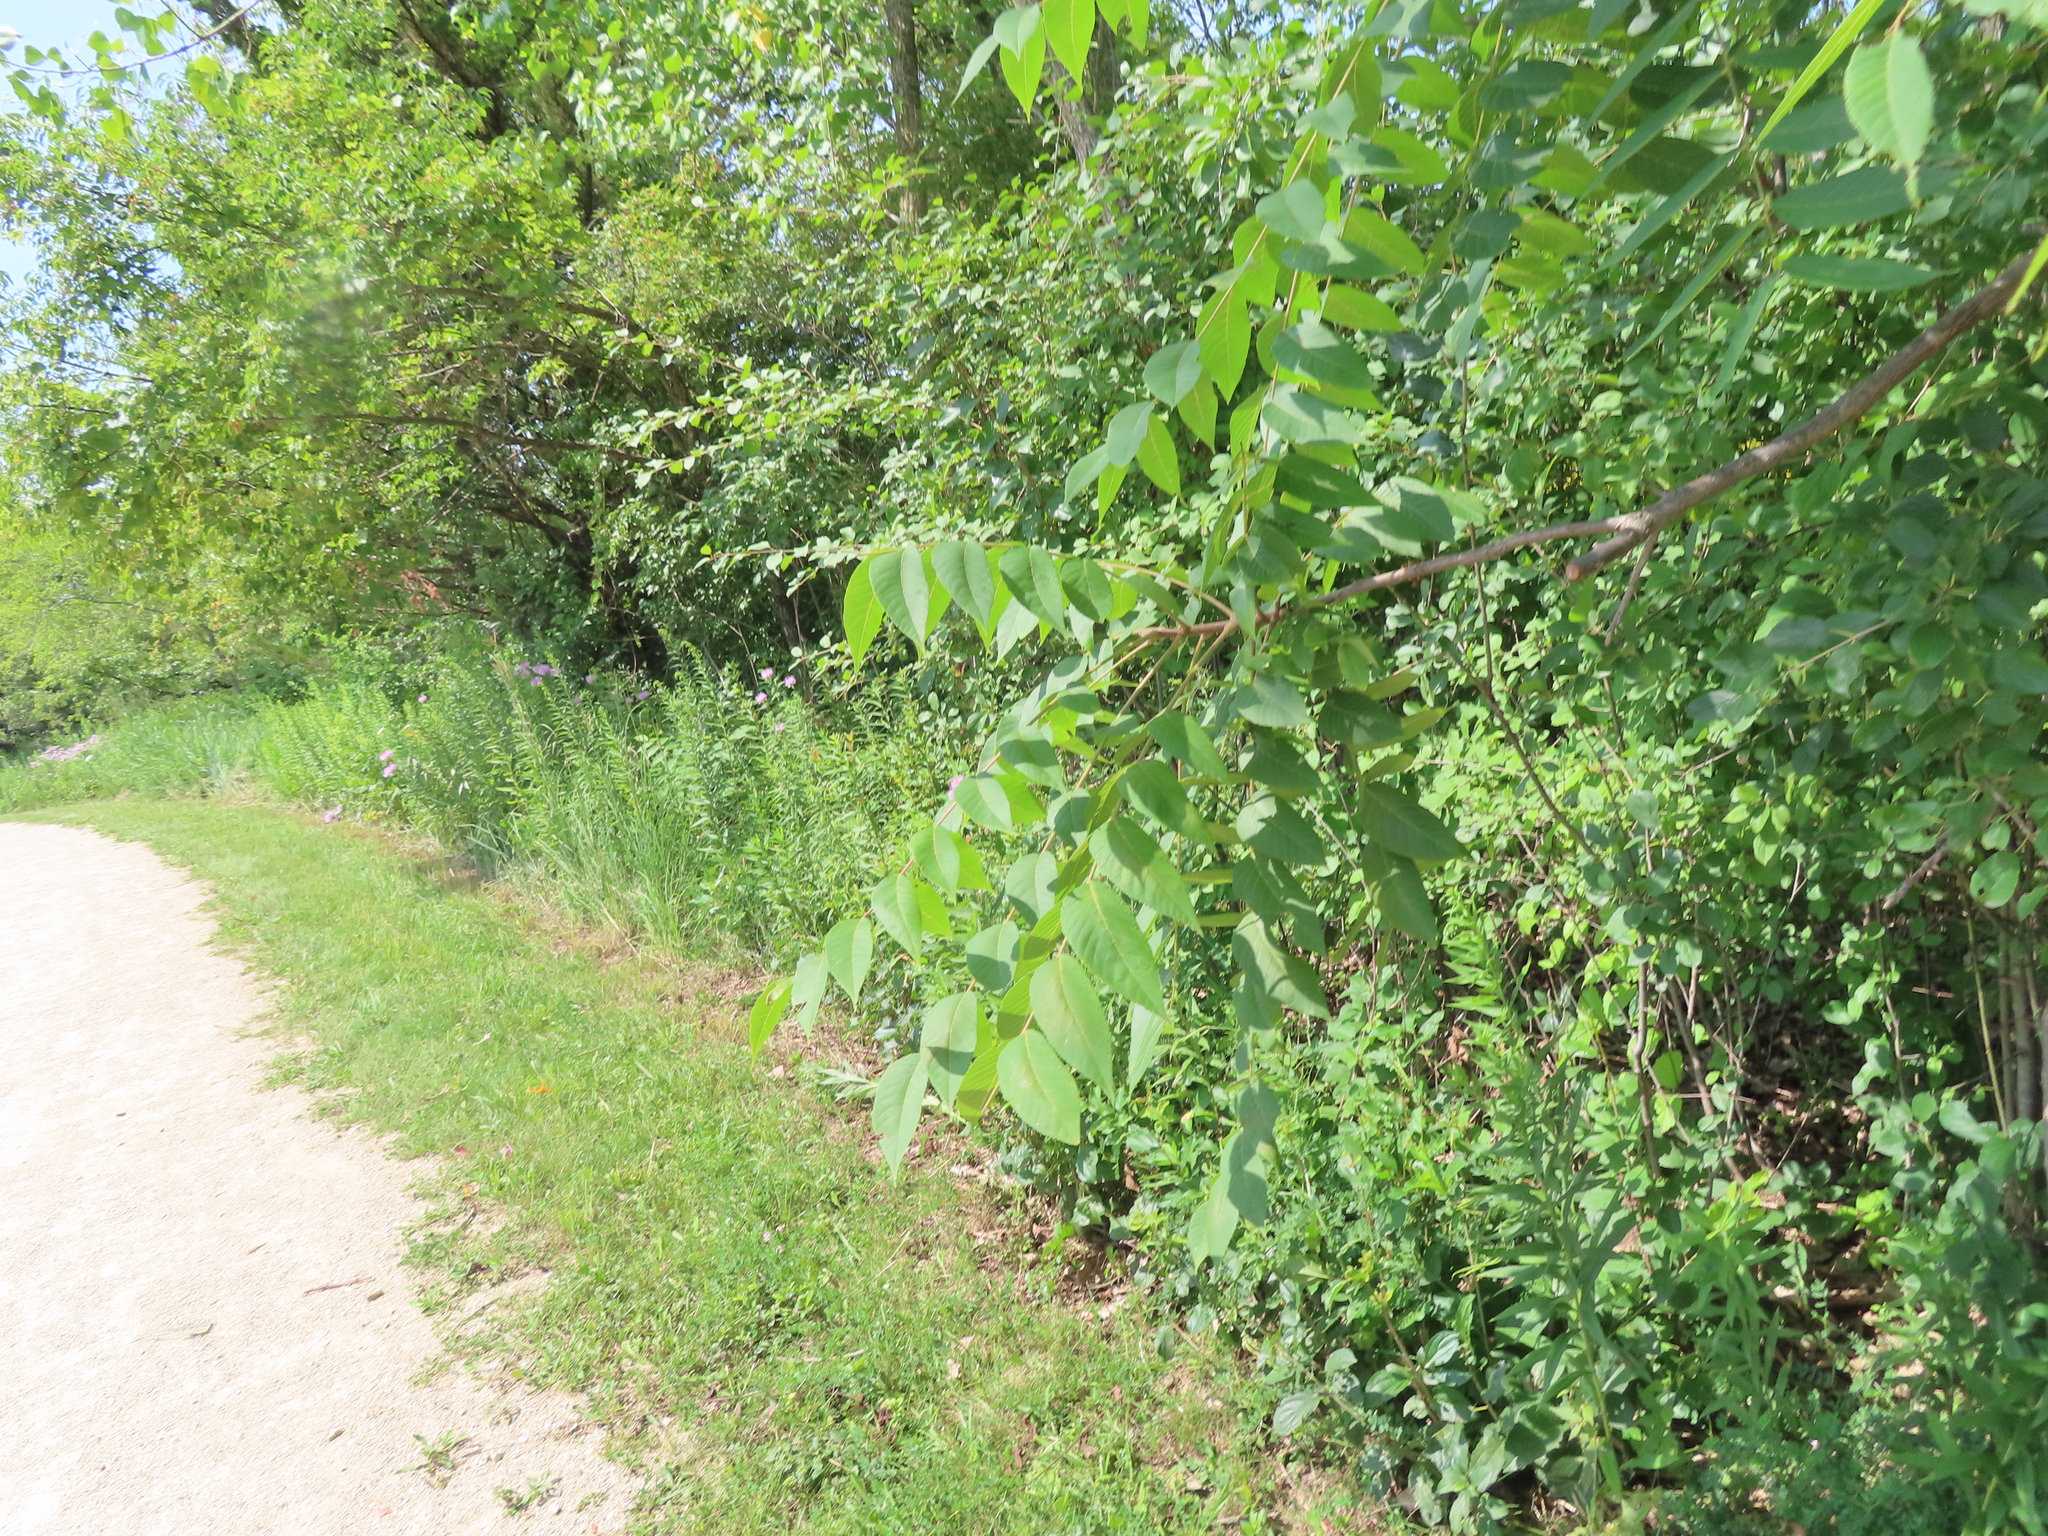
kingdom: Plantae
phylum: Tracheophyta
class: Magnoliopsida
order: Fagales
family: Juglandaceae
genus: Juglans
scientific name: Juglans nigra
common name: Black walnut
